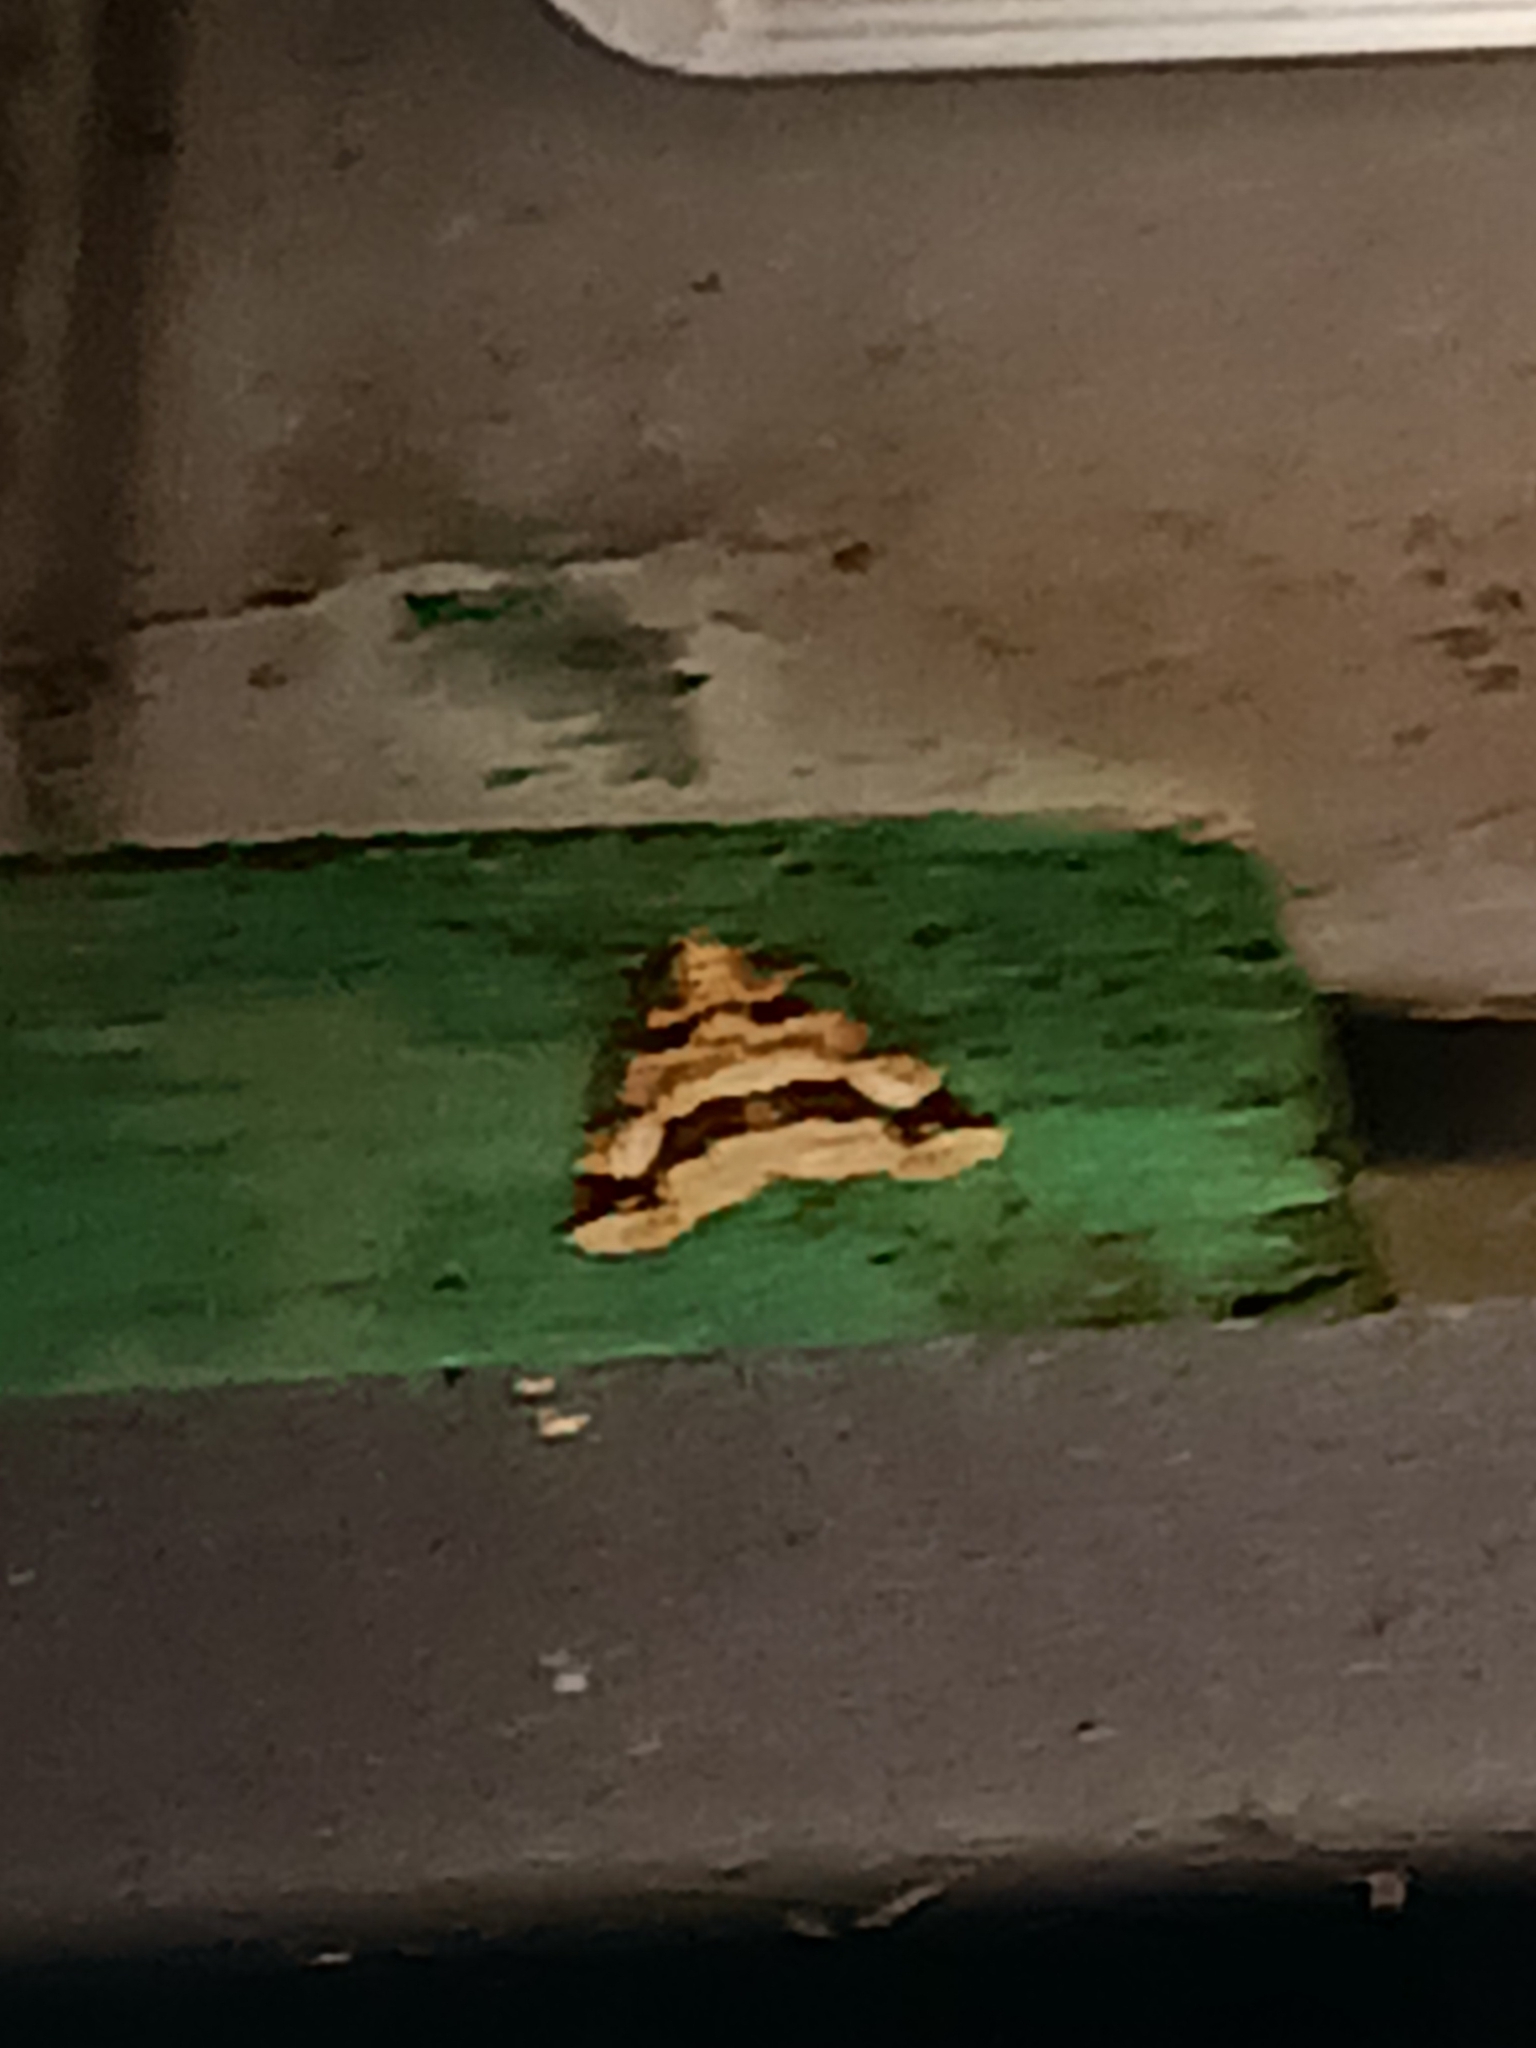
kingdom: Animalia
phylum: Arthropoda
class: Insecta
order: Lepidoptera
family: Geometridae
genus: Erannis
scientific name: Erannis defoliaria
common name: Mottled umber
